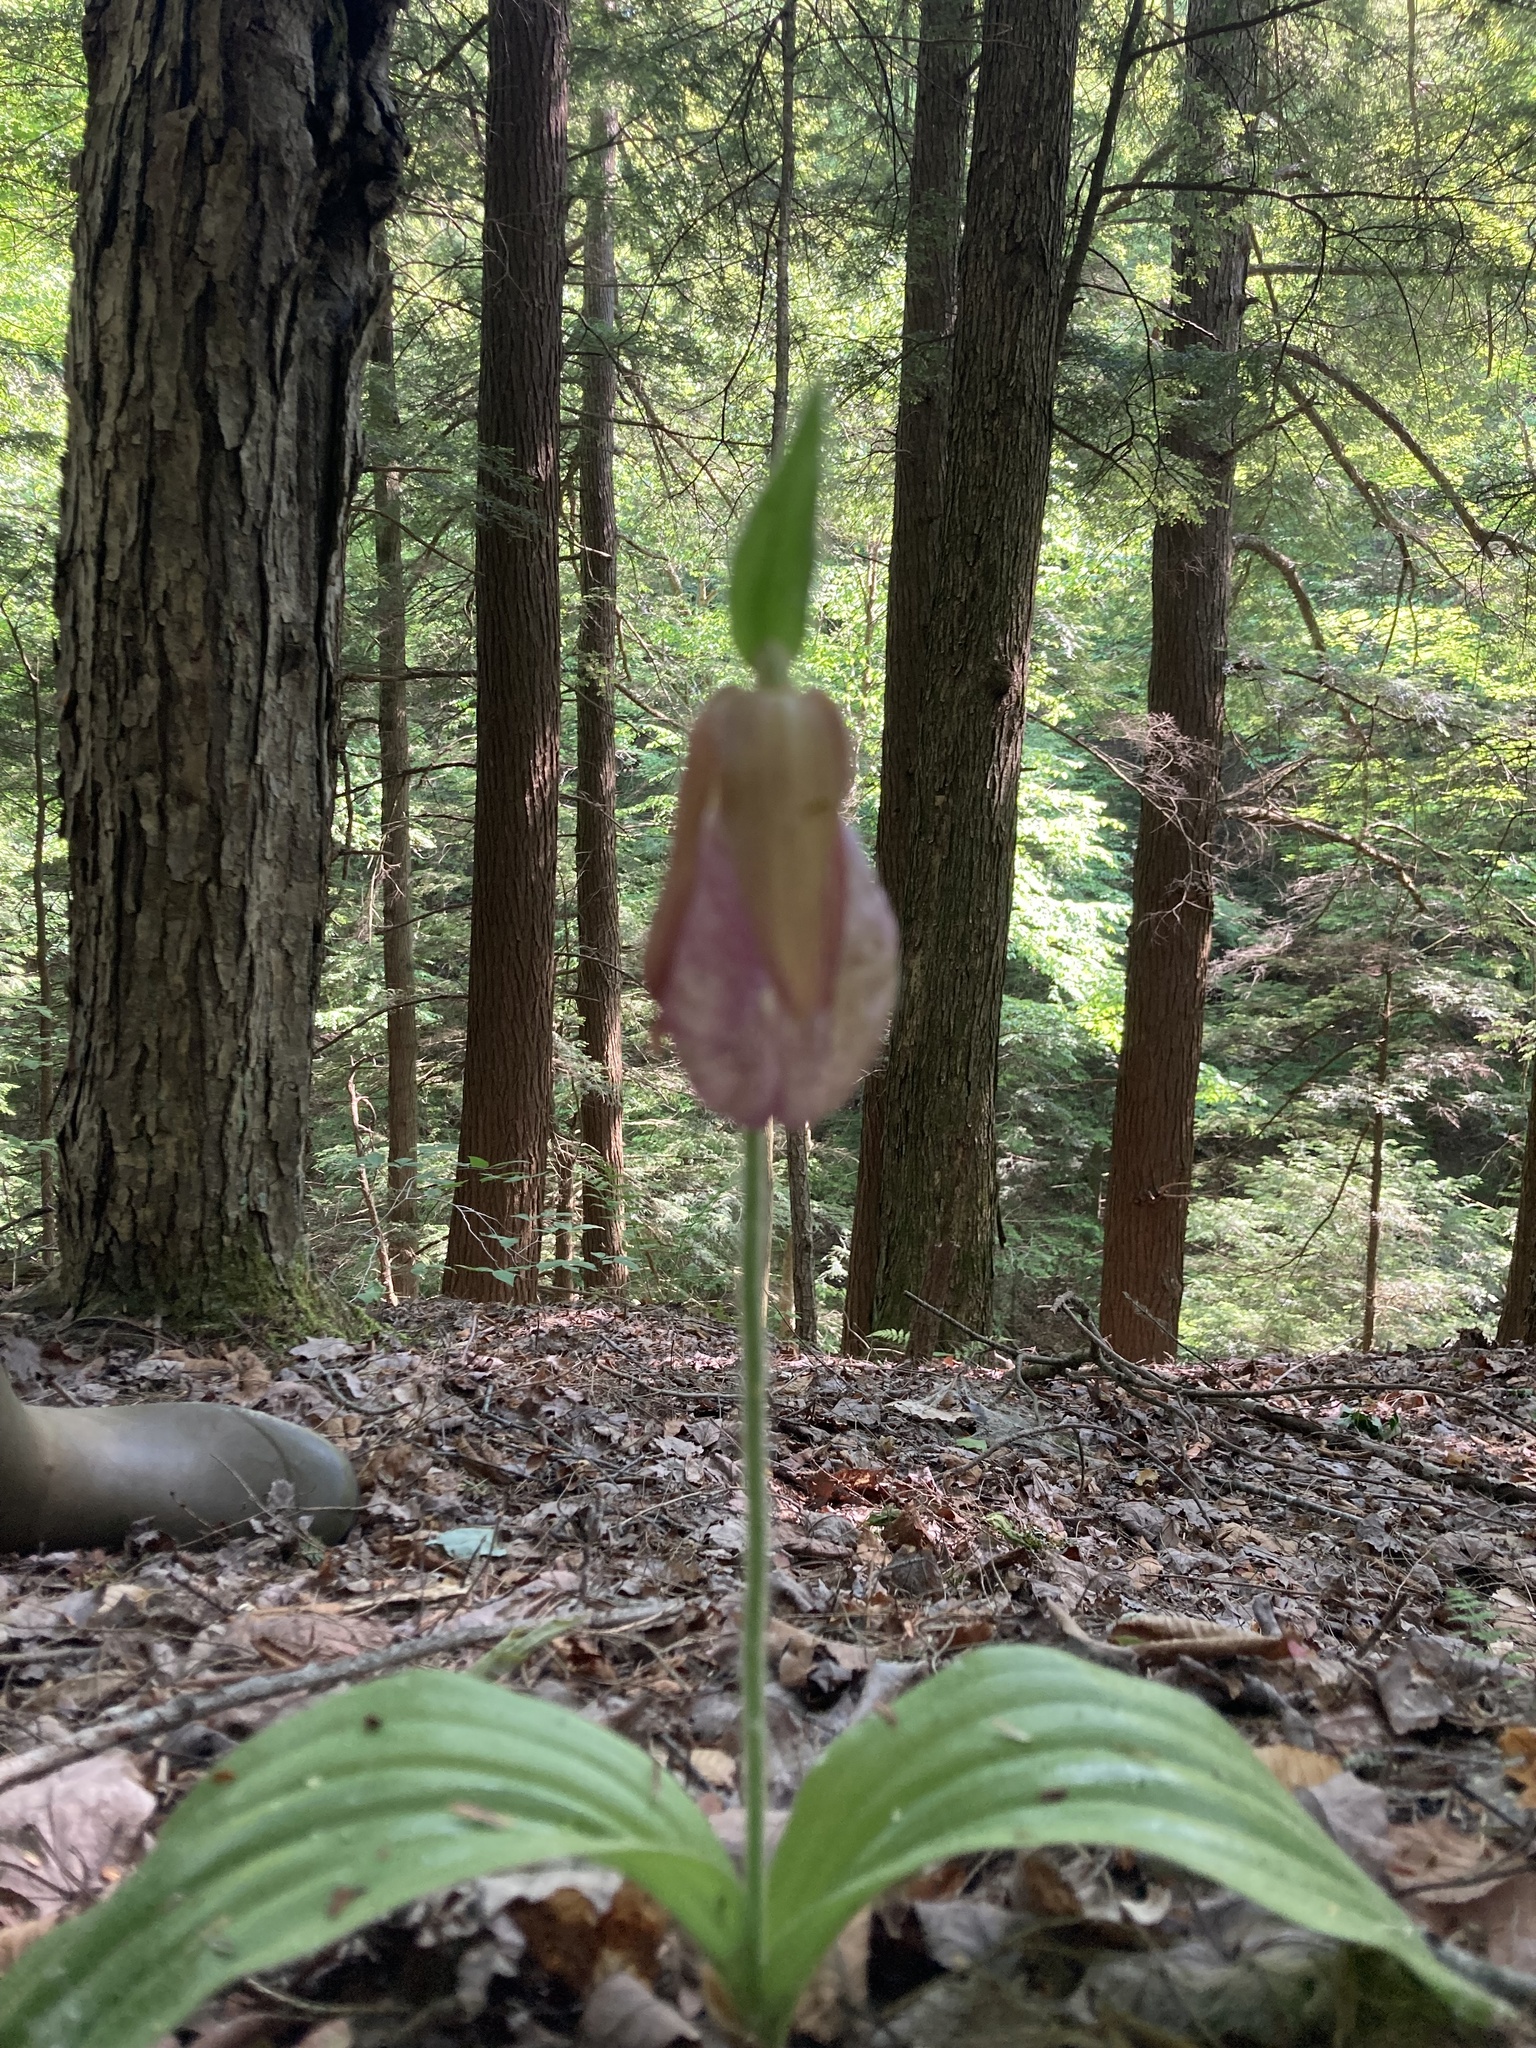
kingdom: Plantae
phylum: Tracheophyta
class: Liliopsida
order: Asparagales
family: Orchidaceae
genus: Cypripedium
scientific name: Cypripedium acaule
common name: Pink lady's-slipper
